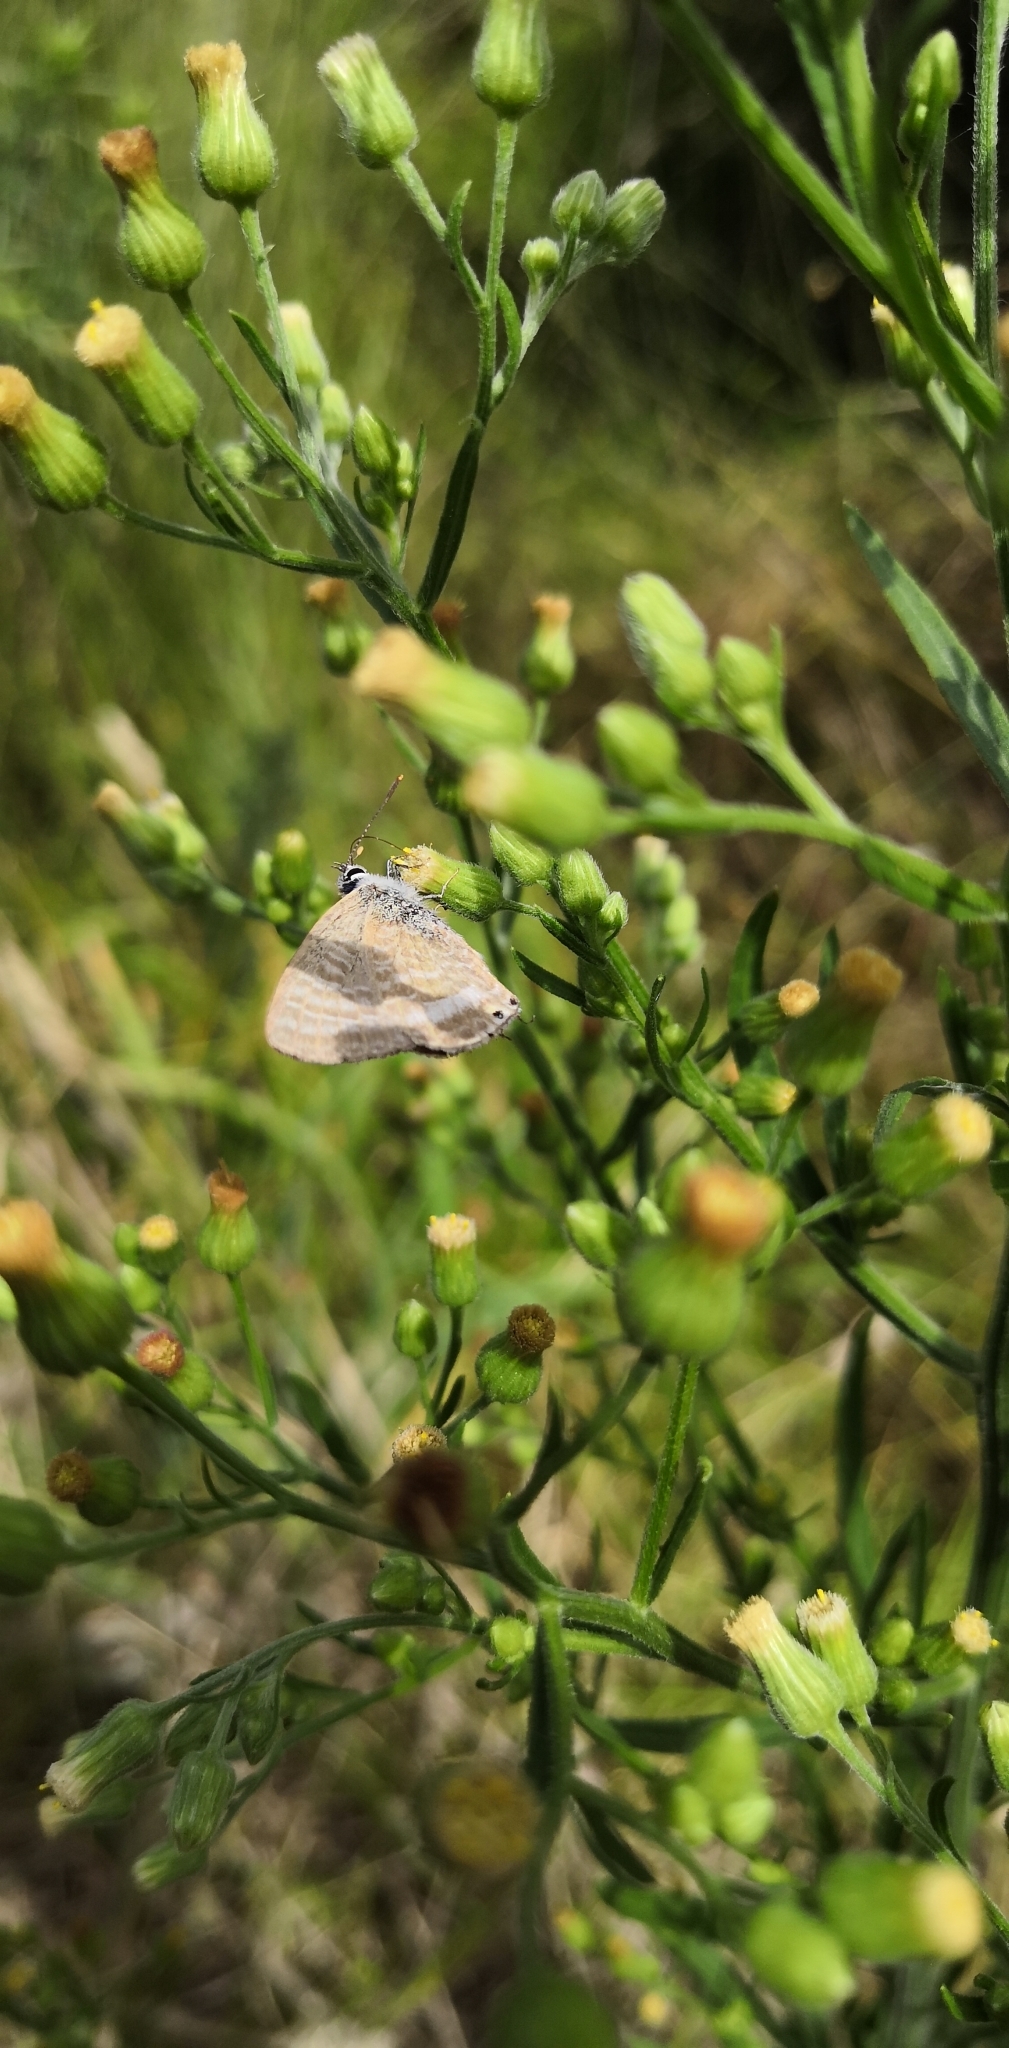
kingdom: Animalia
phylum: Arthropoda
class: Insecta
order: Lepidoptera
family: Lycaenidae
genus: Lampides
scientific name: Lampides boeticus
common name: Long-tailed blue
